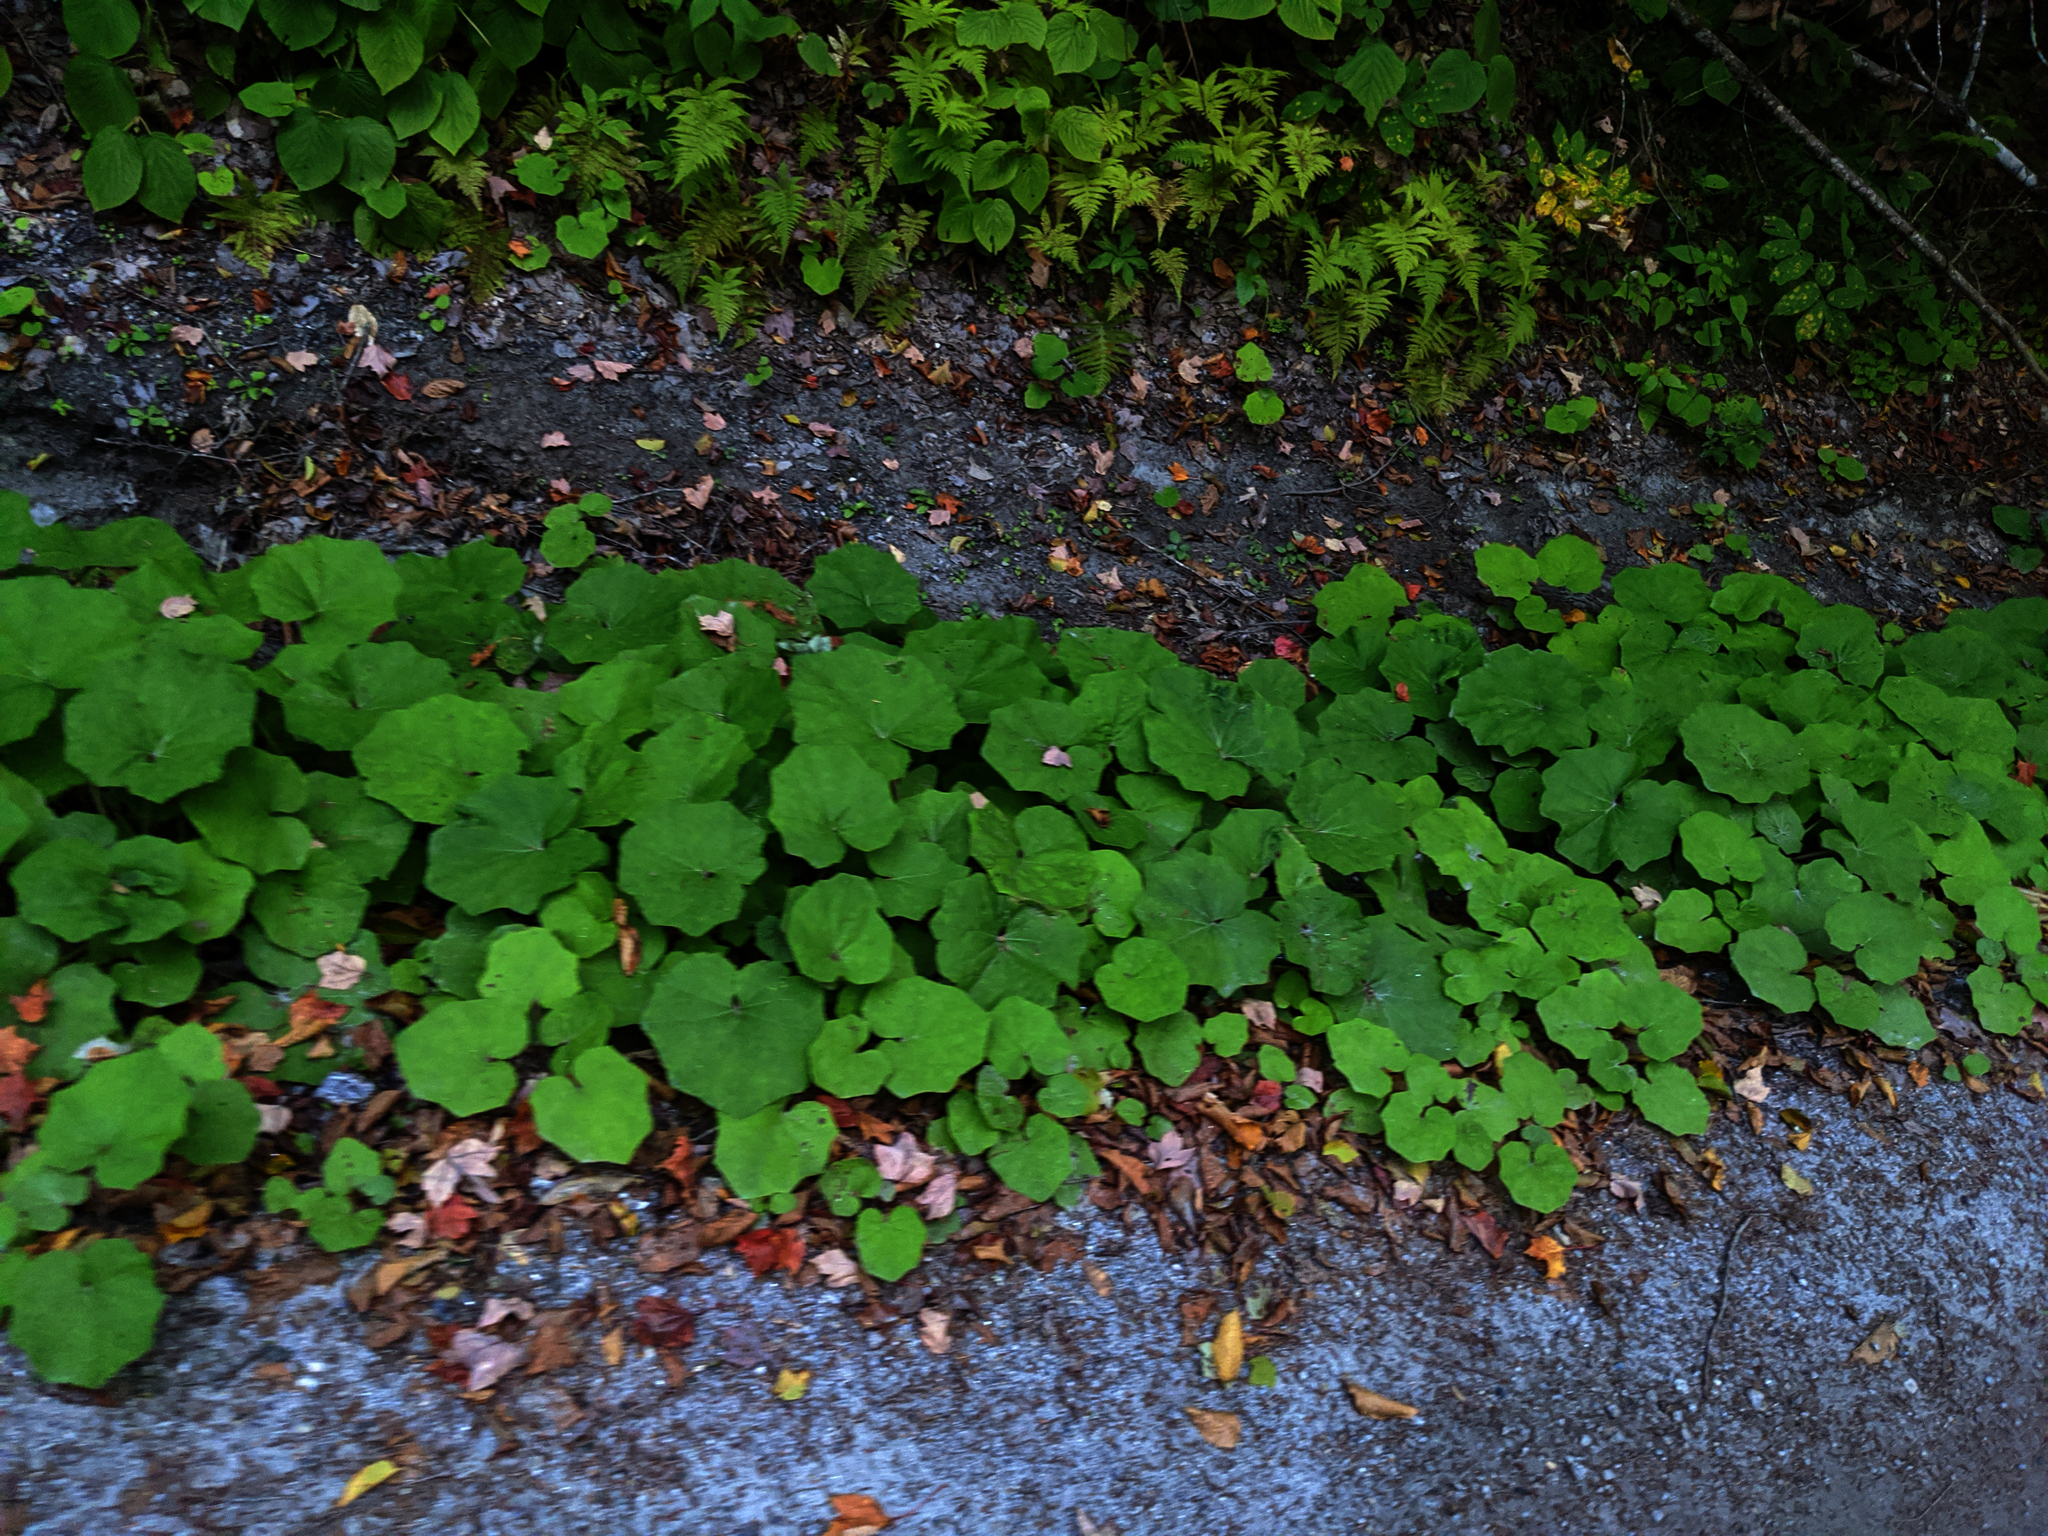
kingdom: Plantae
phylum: Tracheophyta
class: Magnoliopsida
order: Asterales
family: Asteraceae
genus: Tussilago
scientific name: Tussilago farfara
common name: Coltsfoot
